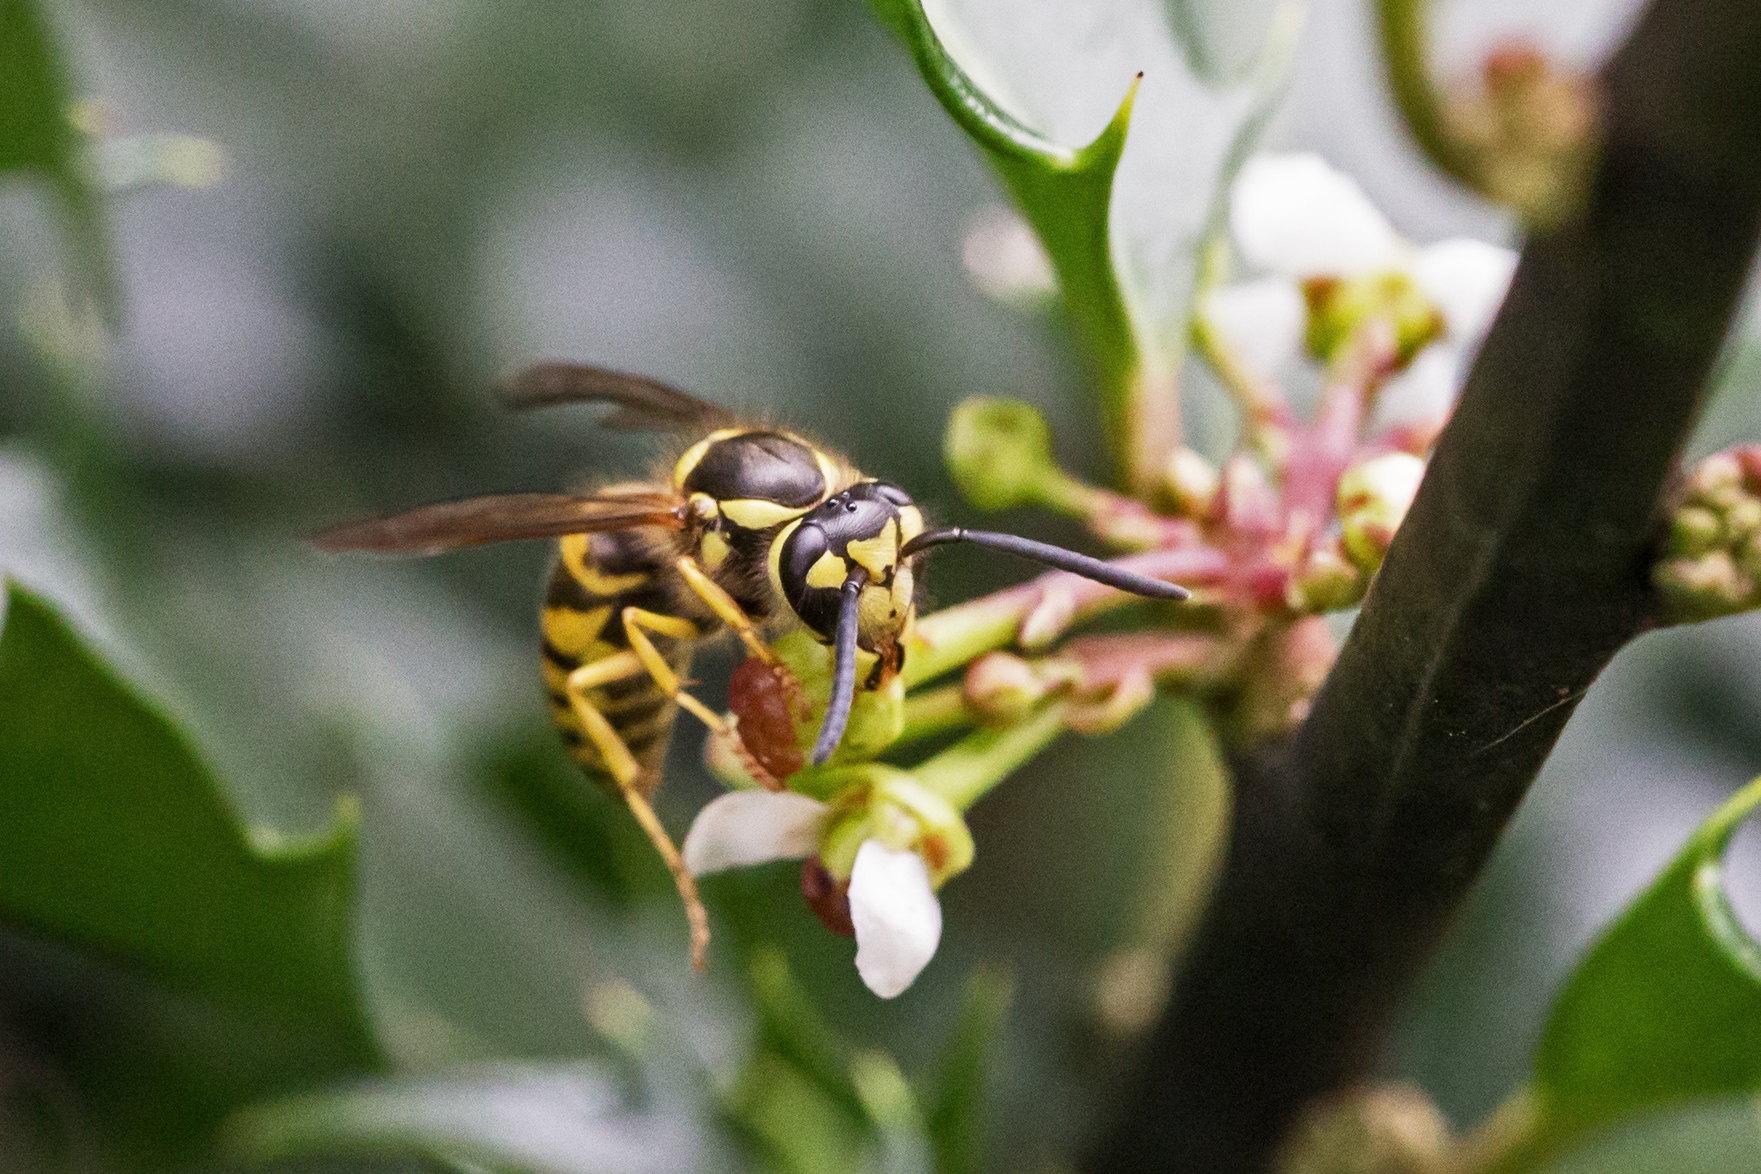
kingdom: Animalia
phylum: Arthropoda
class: Insecta
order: Hymenoptera
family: Vespidae
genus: Vespula
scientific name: Vespula maculifrons
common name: Eastern yellowjacket
